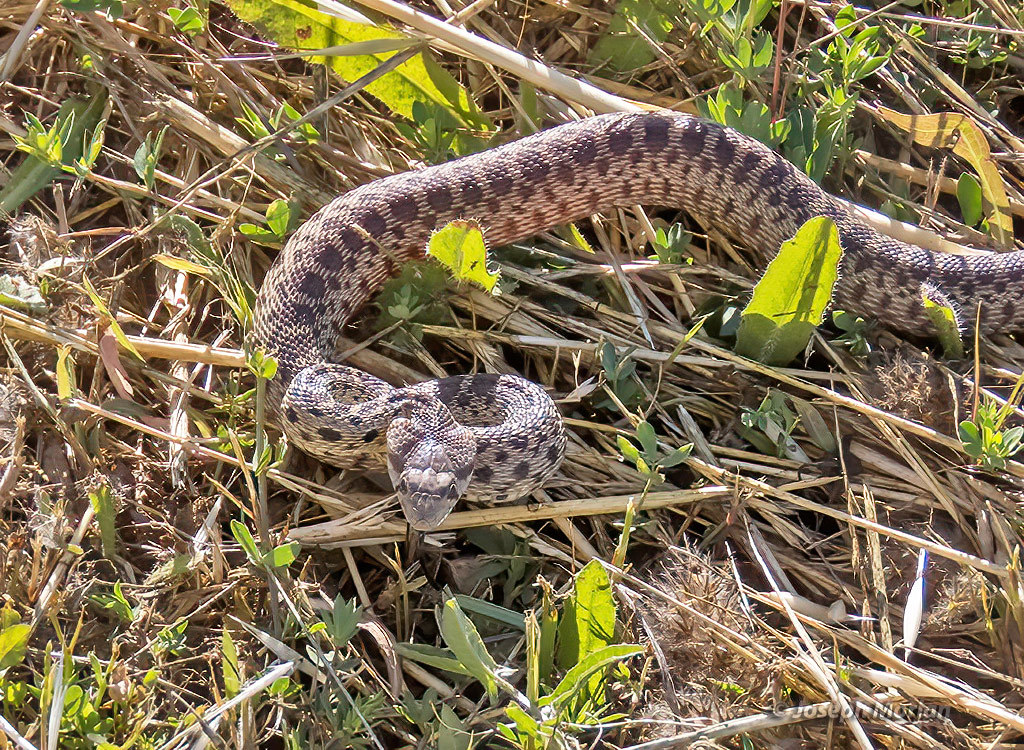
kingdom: Animalia
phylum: Chordata
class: Squamata
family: Colubridae
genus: Pituophis
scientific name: Pituophis catenifer
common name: Gopher snake
